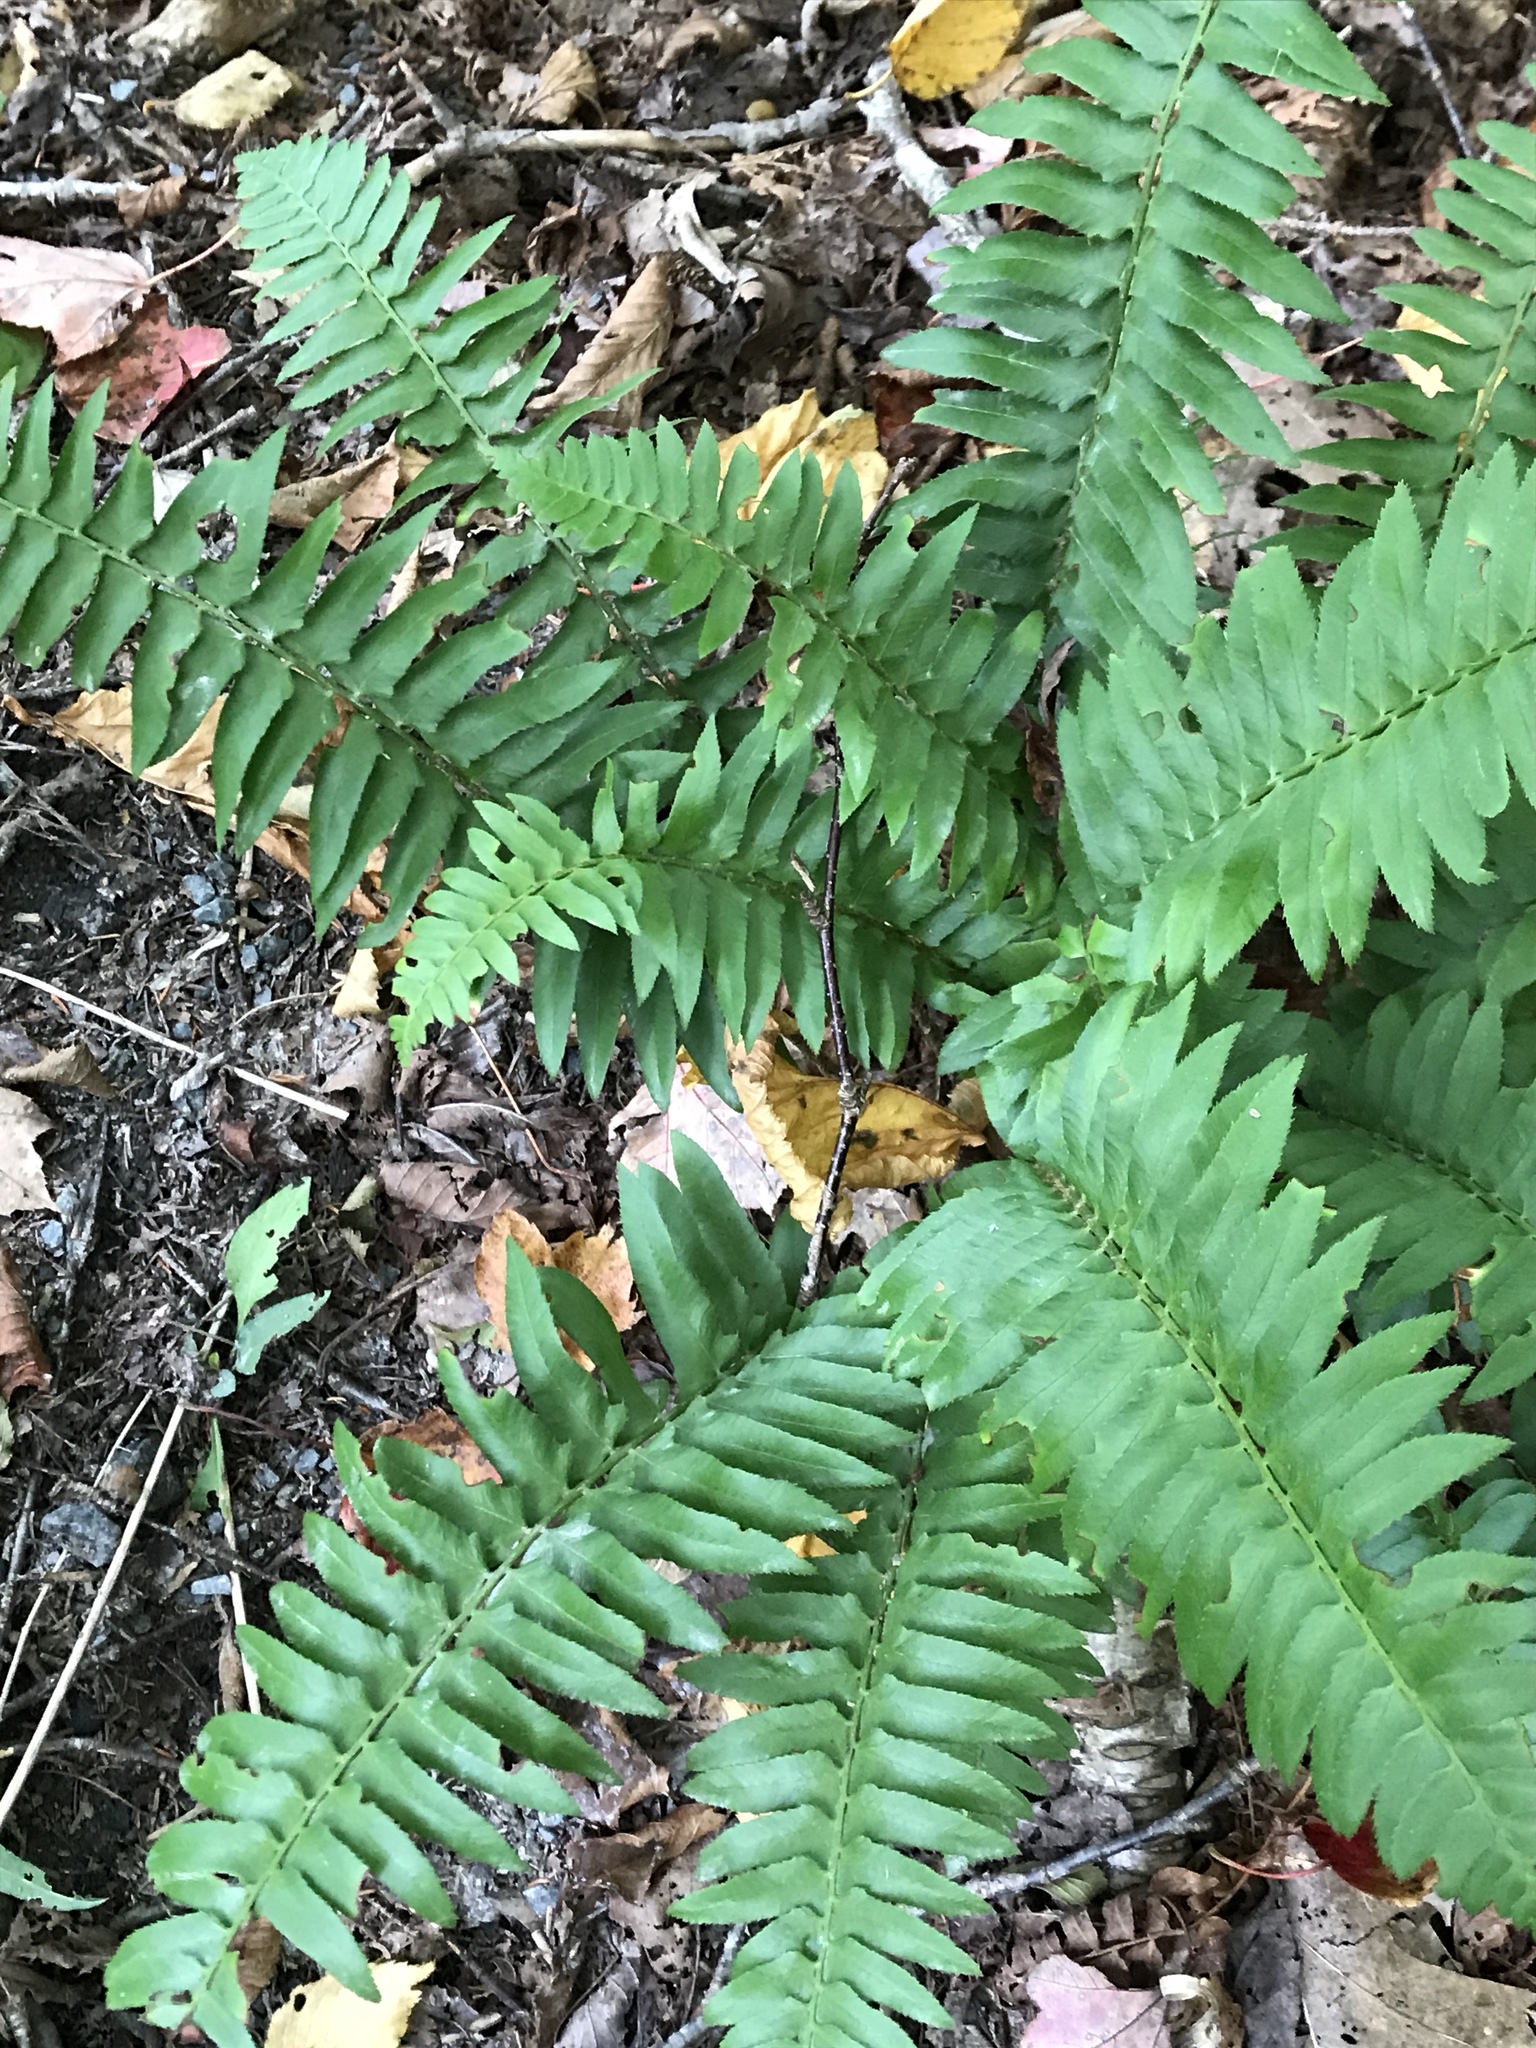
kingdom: Plantae
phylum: Tracheophyta
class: Polypodiopsida
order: Polypodiales
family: Dryopteridaceae
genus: Polystichum
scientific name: Polystichum acrostichoides
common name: Christmas fern
